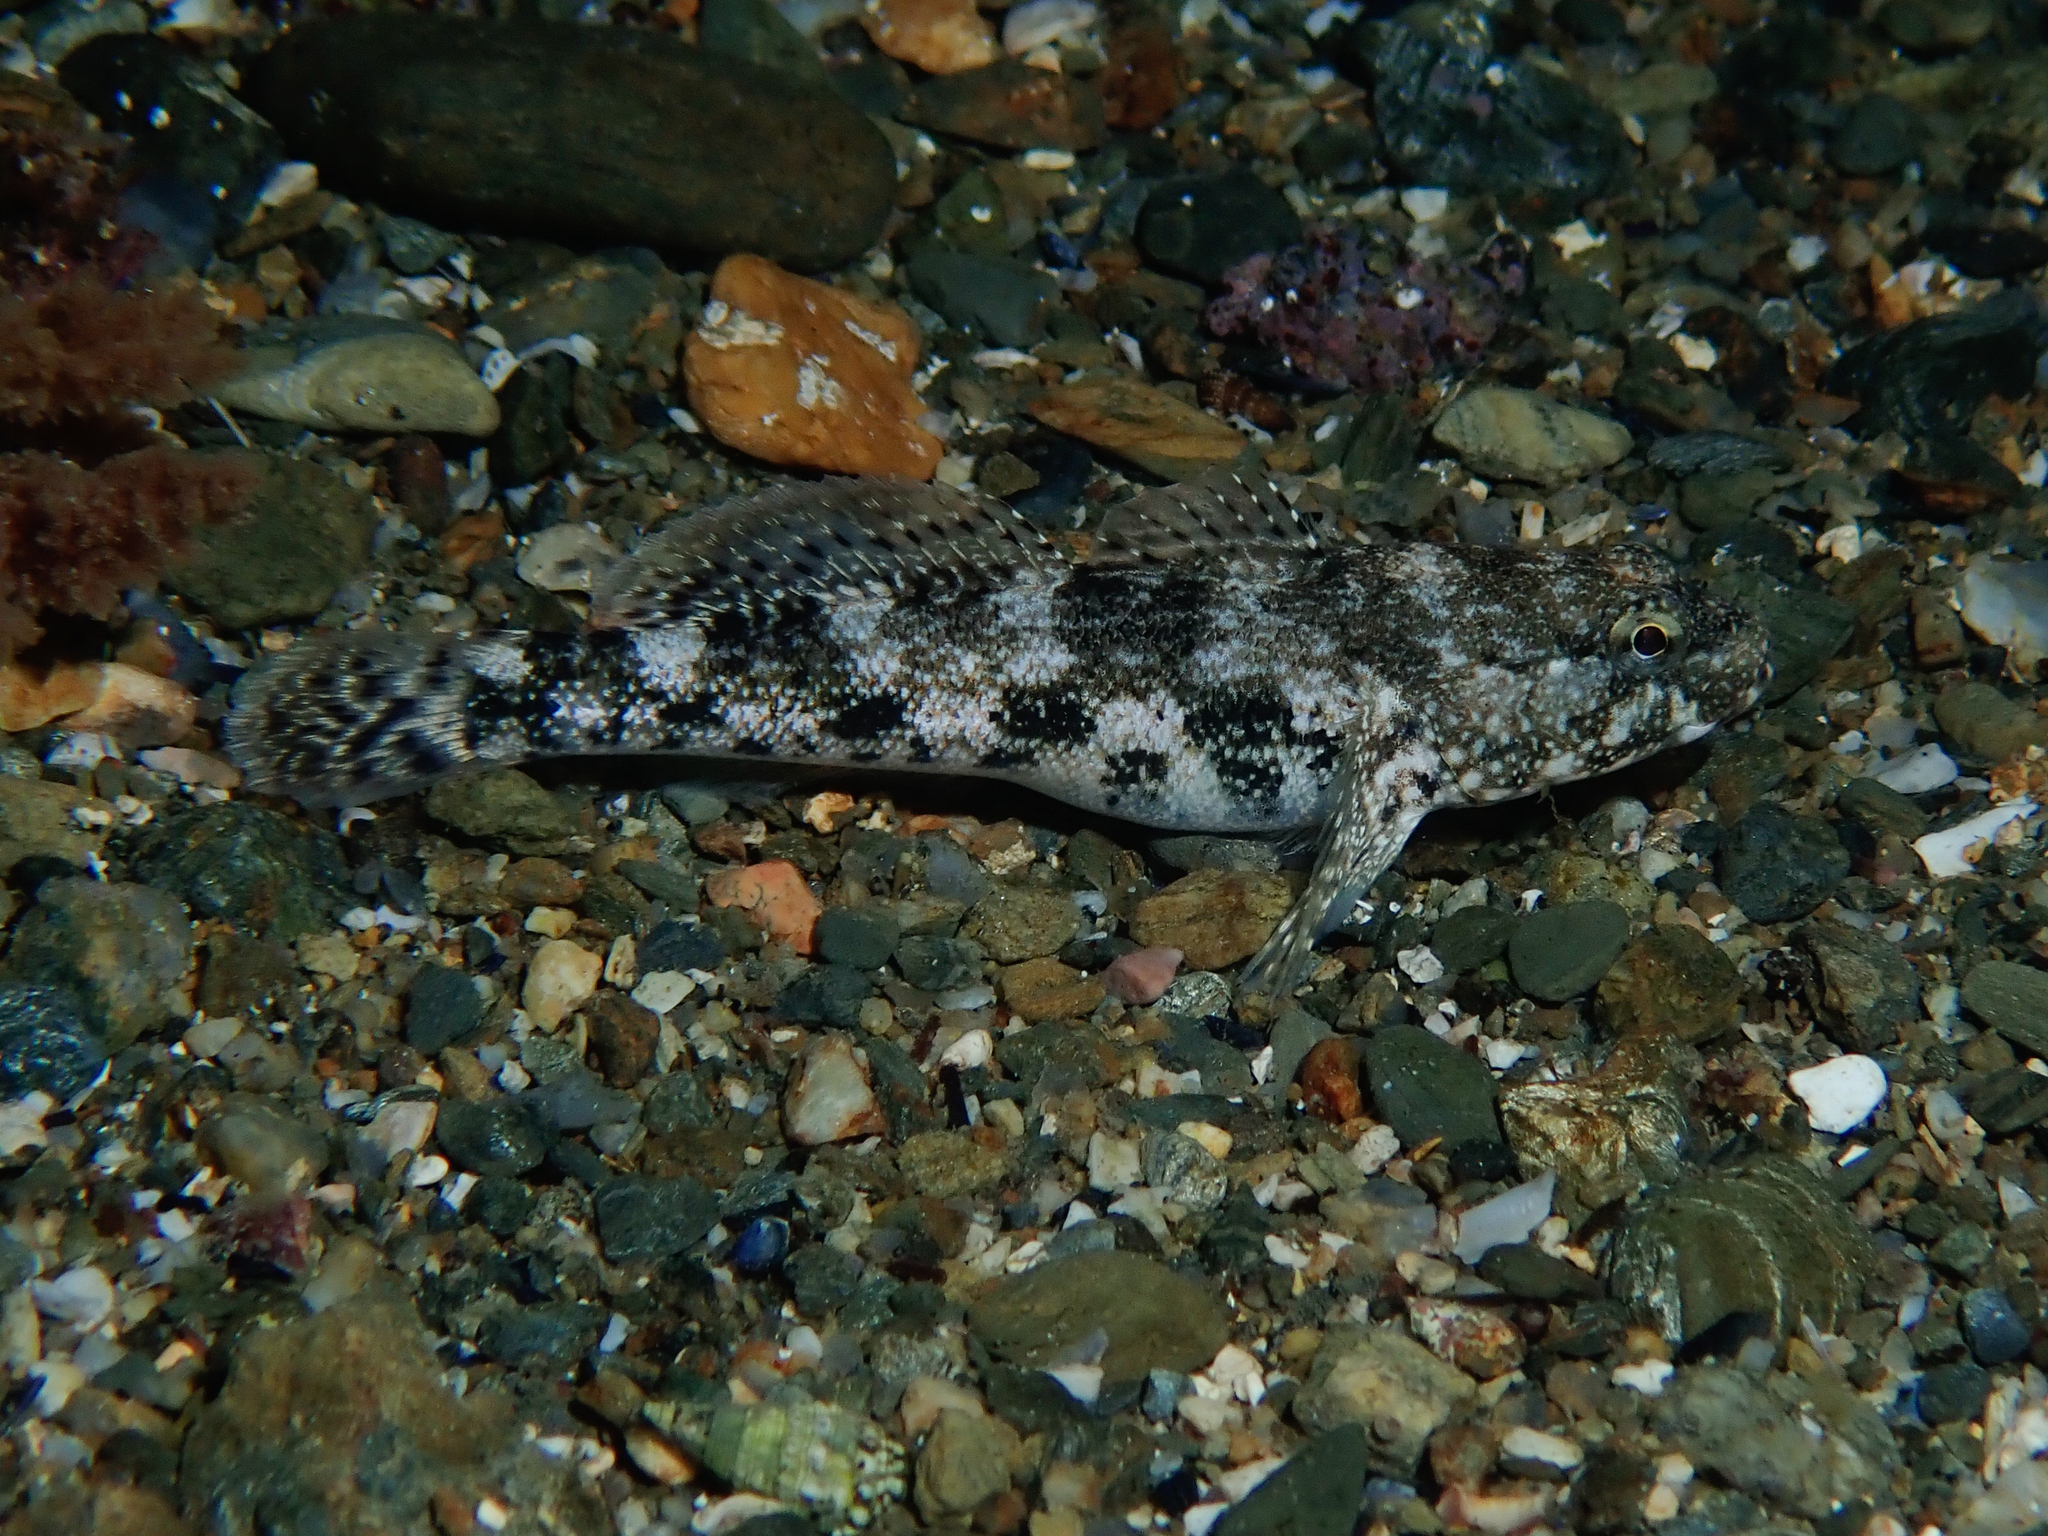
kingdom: Animalia
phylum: Chordata
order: Perciformes
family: Gobiidae
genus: Gobius
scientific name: Gobius cobitis
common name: Giant goby
